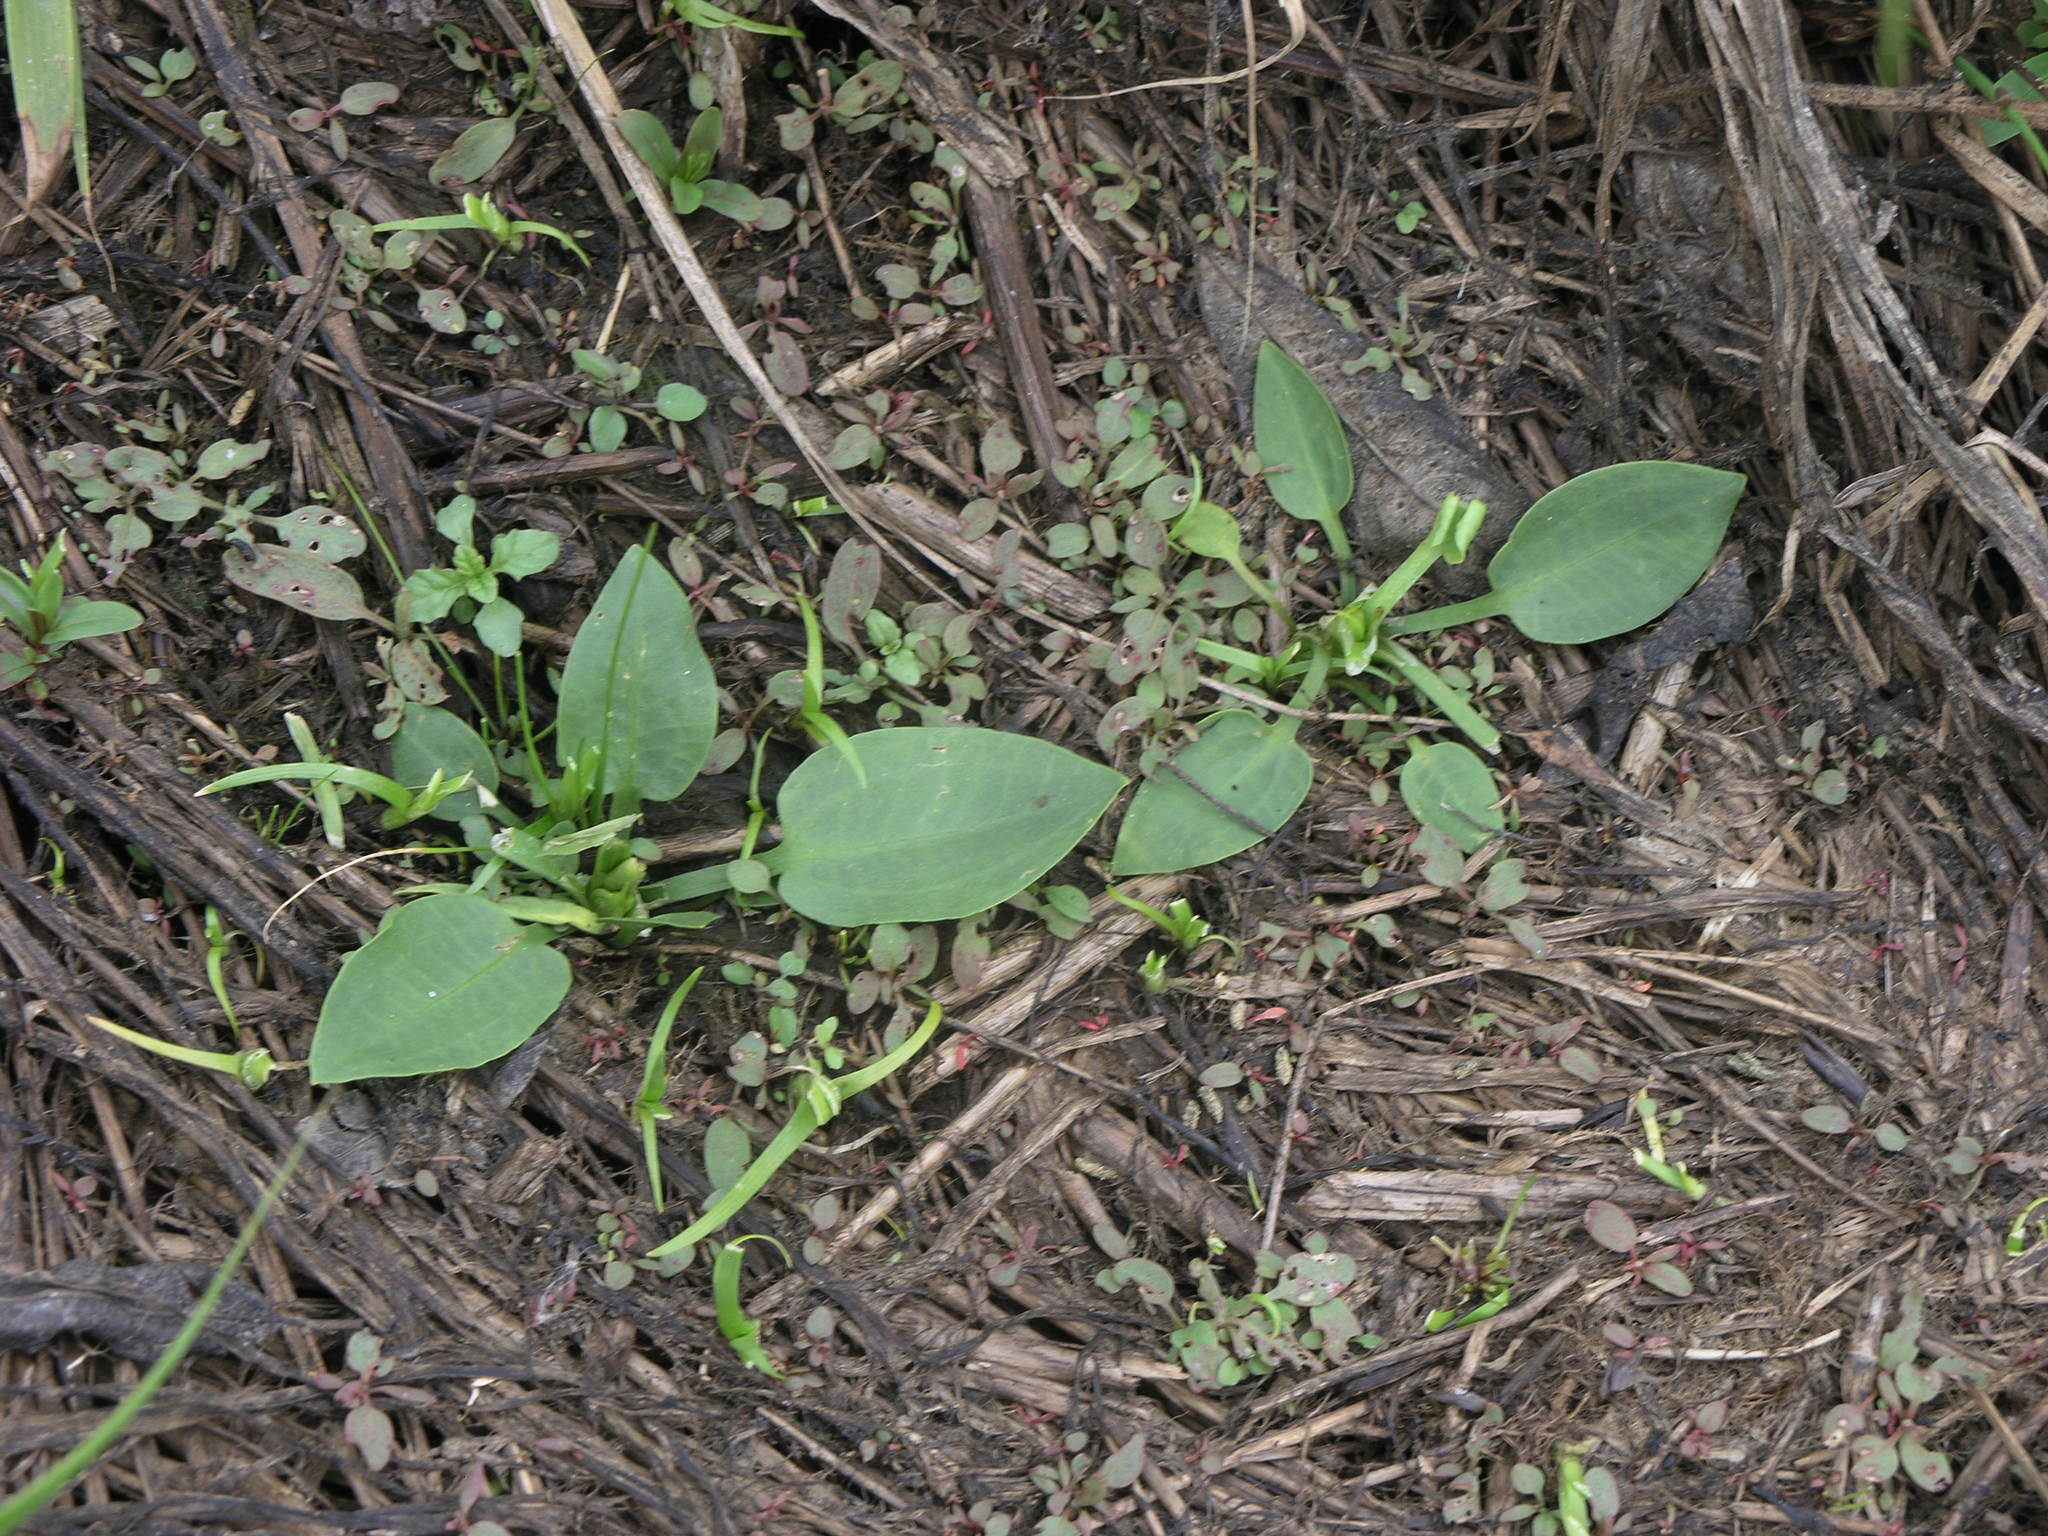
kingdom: Plantae
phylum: Tracheophyta
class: Liliopsida
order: Alismatales
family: Alismataceae
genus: Alisma
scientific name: Alisma plantago-aquatica
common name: Water-plantain
